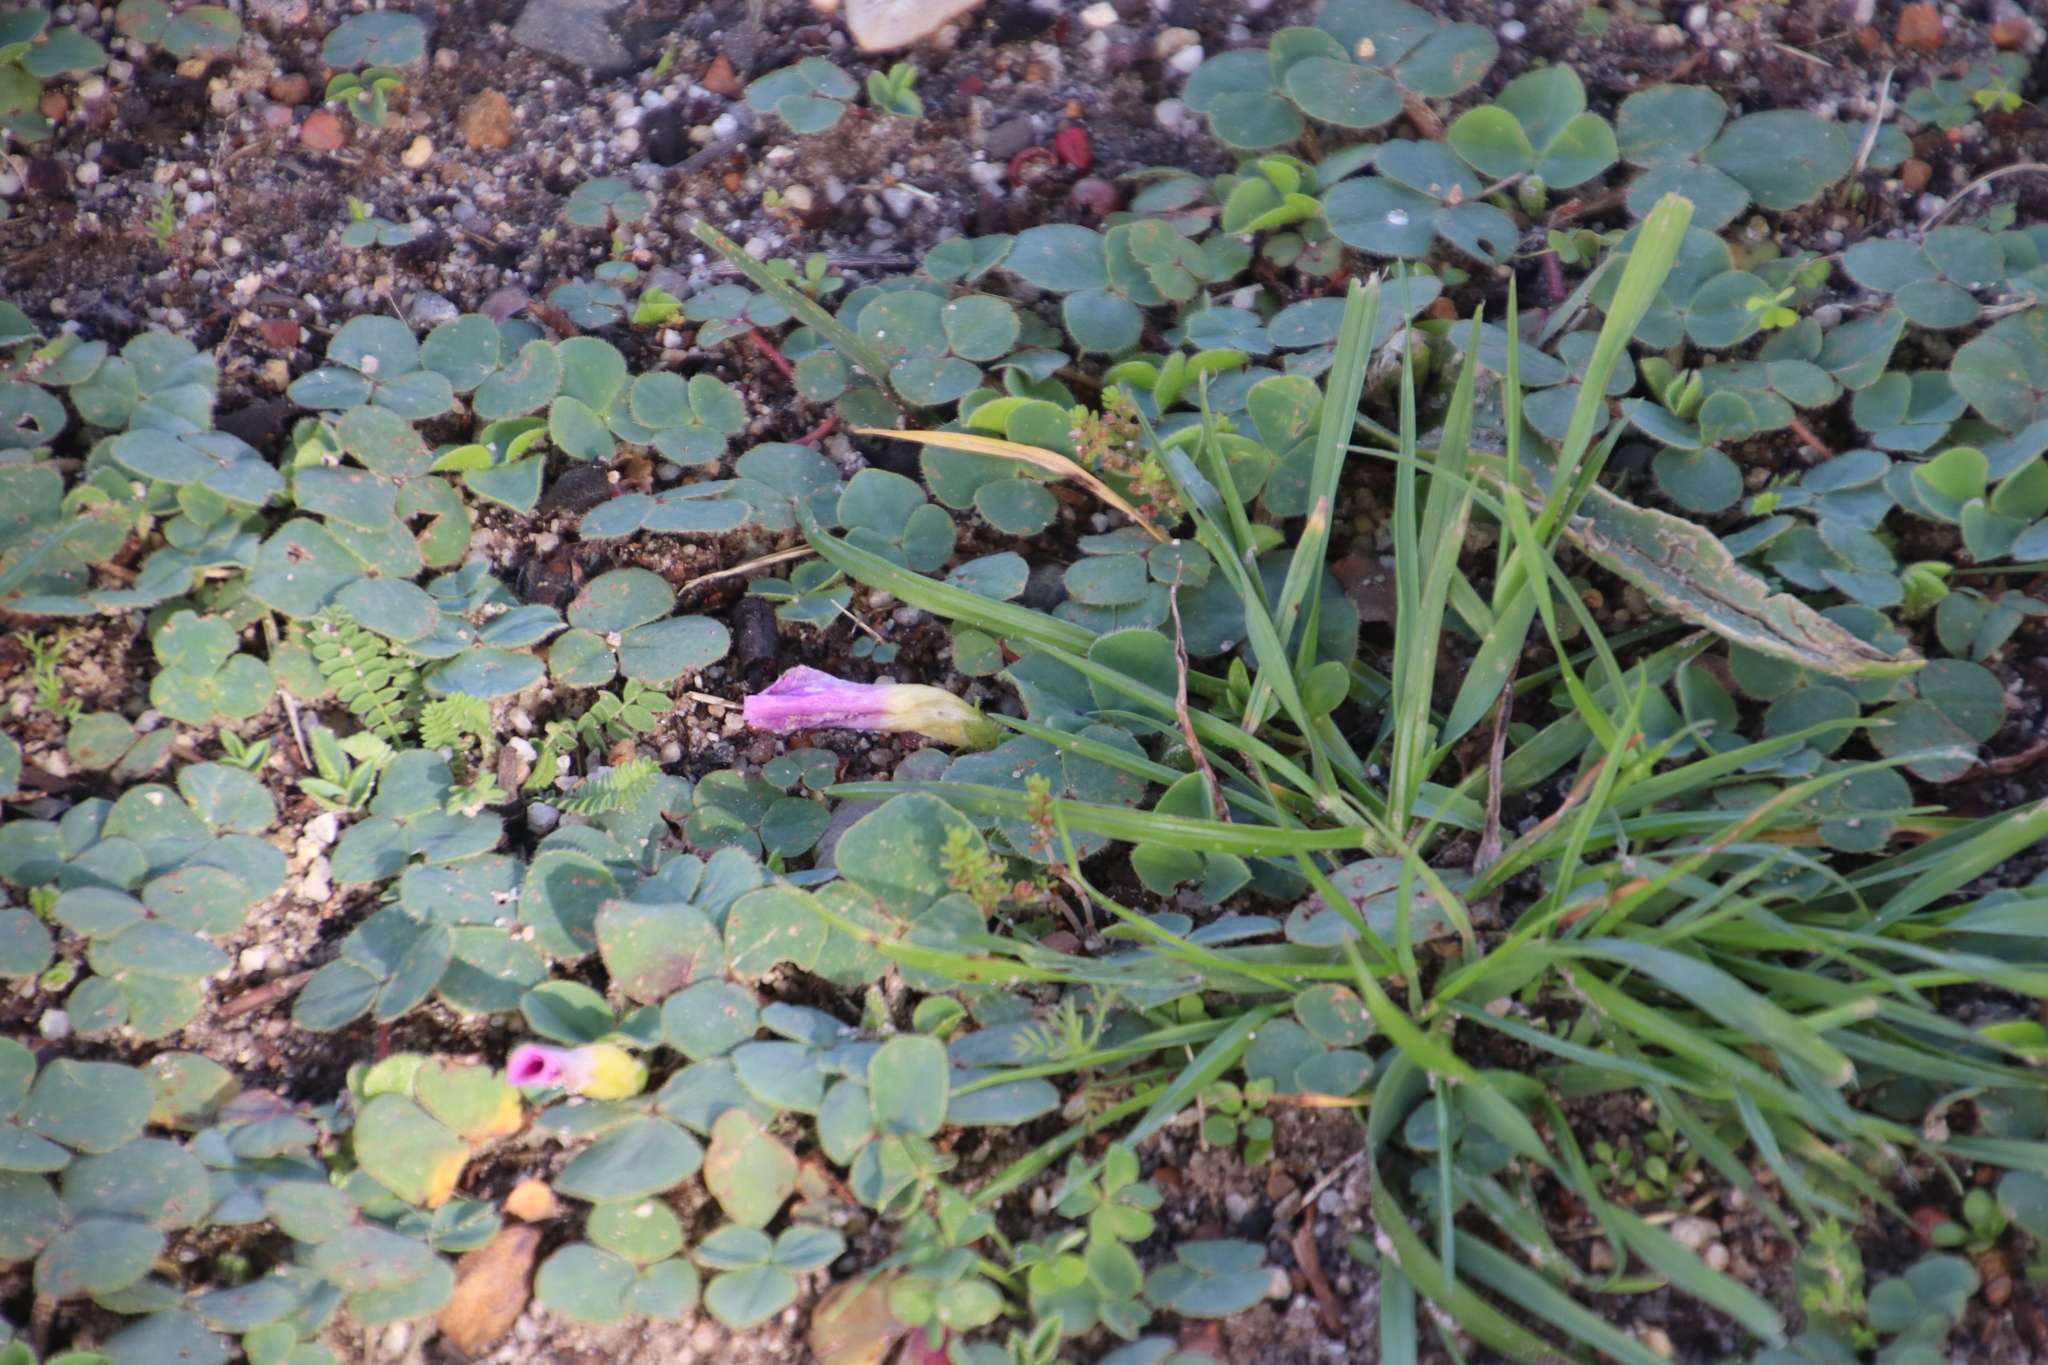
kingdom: Plantae
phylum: Tracheophyta
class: Magnoliopsida
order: Oxalidales
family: Oxalidaceae
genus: Oxalis
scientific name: Oxalis purpurea
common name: Purple woodsorrel
